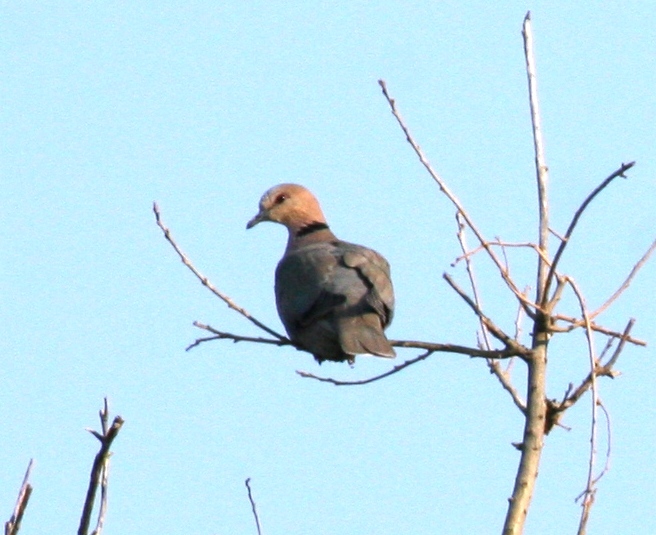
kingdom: Animalia
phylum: Chordata
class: Aves
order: Columbiformes
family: Columbidae
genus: Streptopelia
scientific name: Streptopelia semitorquata
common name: Red-eyed dove
